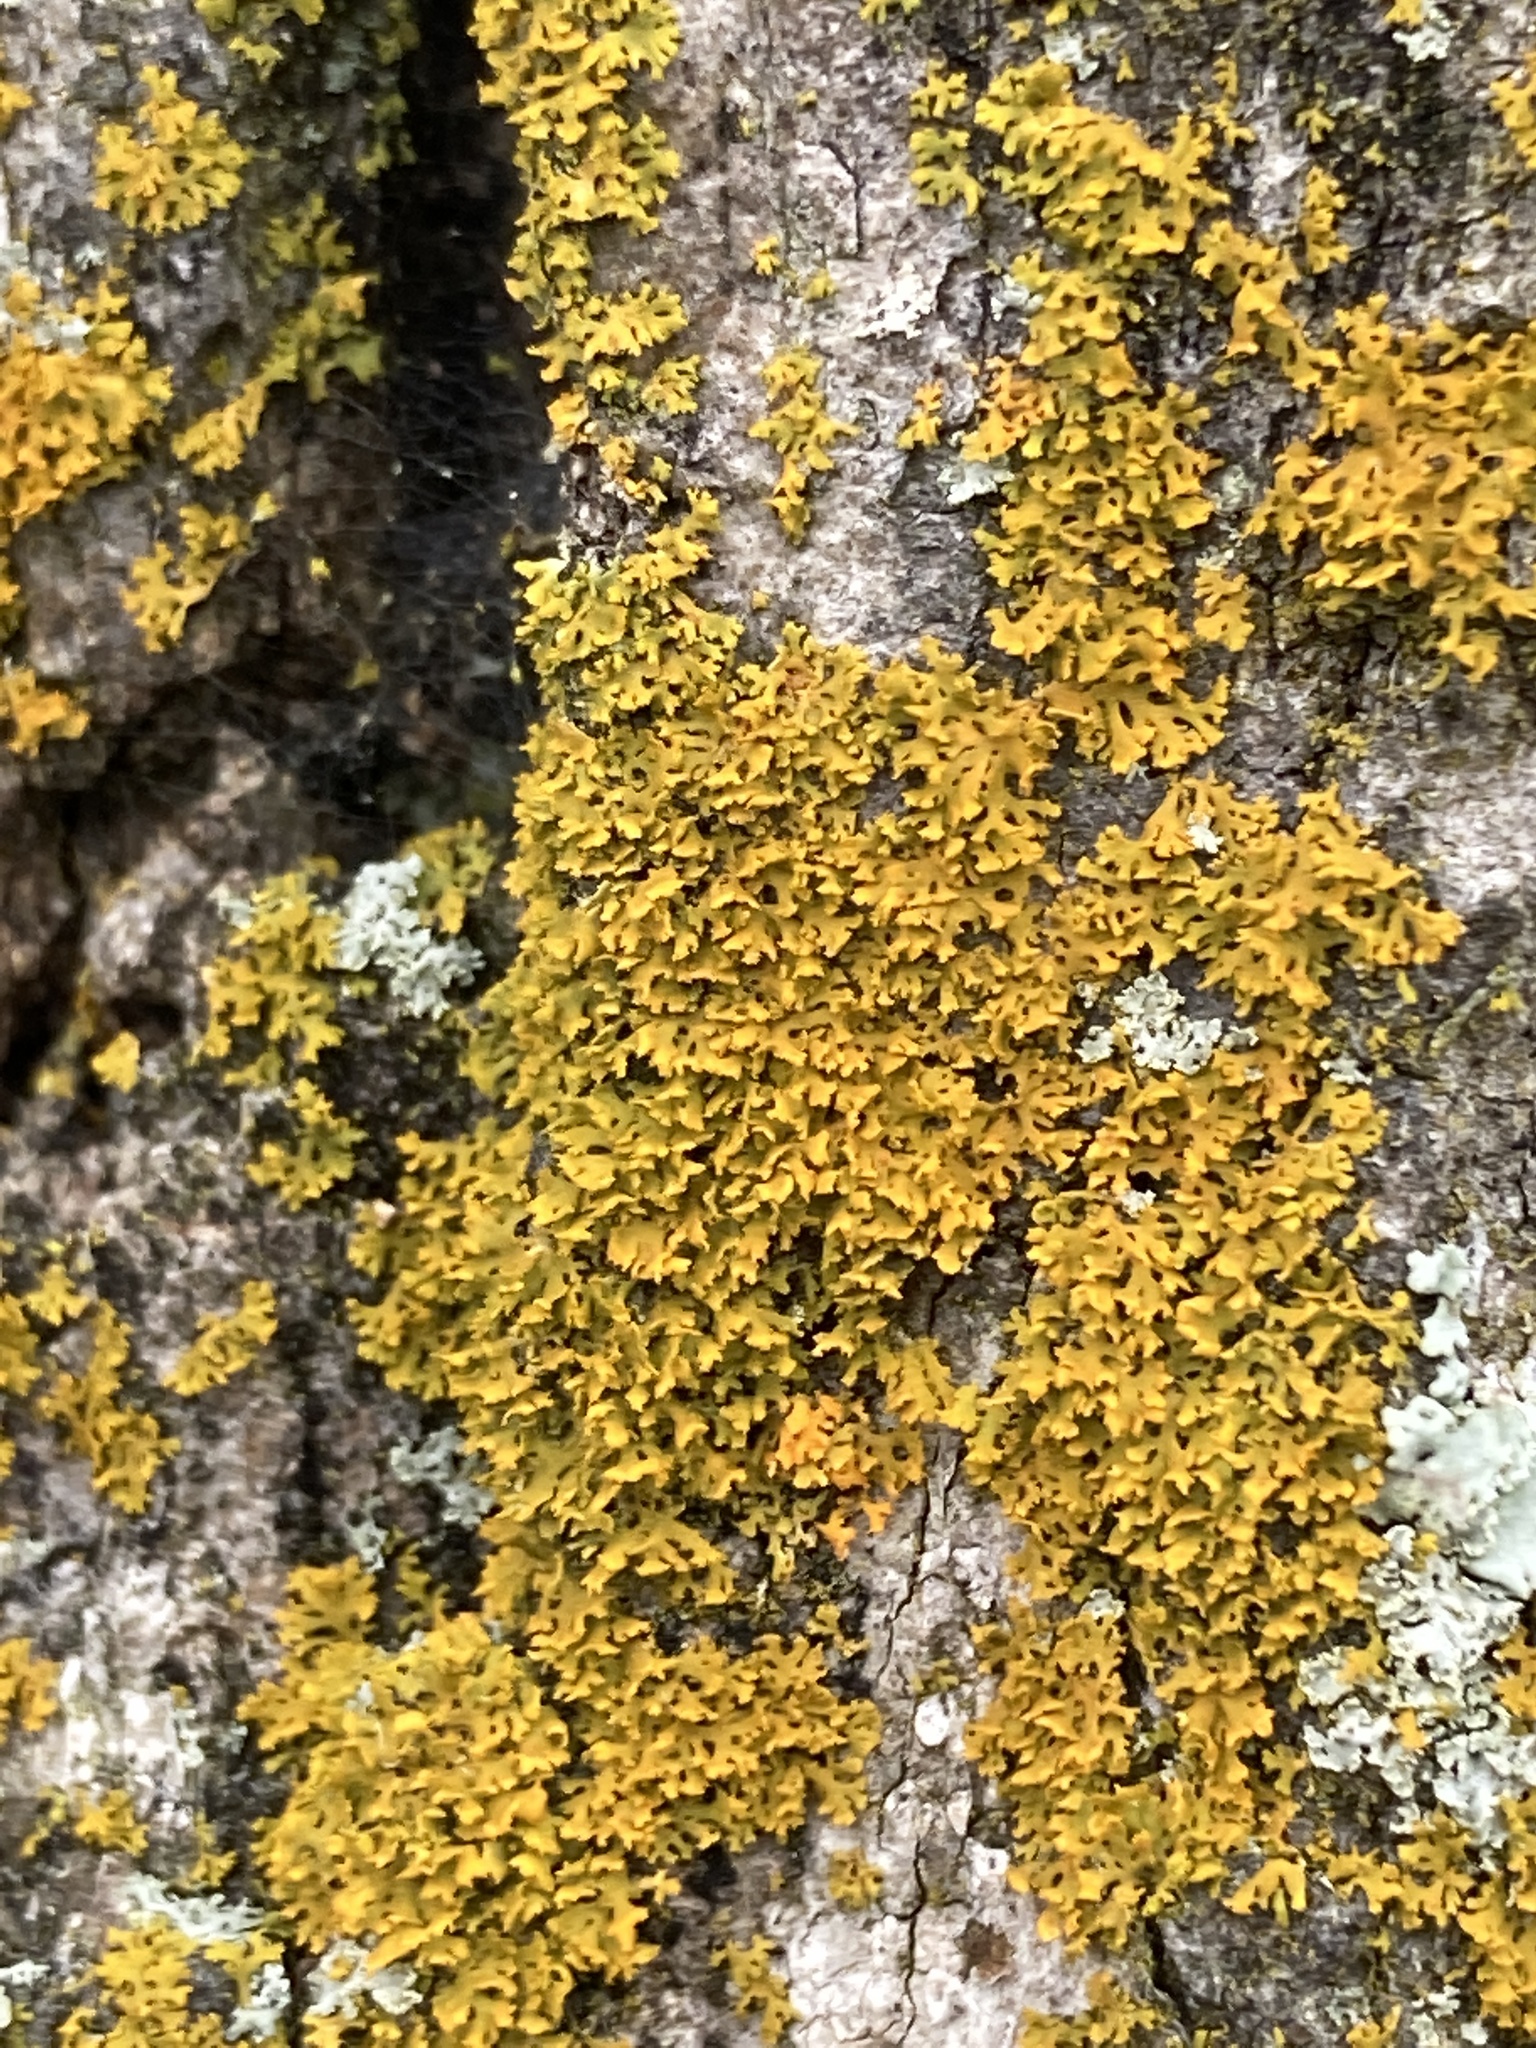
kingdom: Fungi
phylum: Ascomycota
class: Lecanoromycetes
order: Teloschistales
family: Teloschistaceae
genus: Gallowayella
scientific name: Gallowayella weberi
